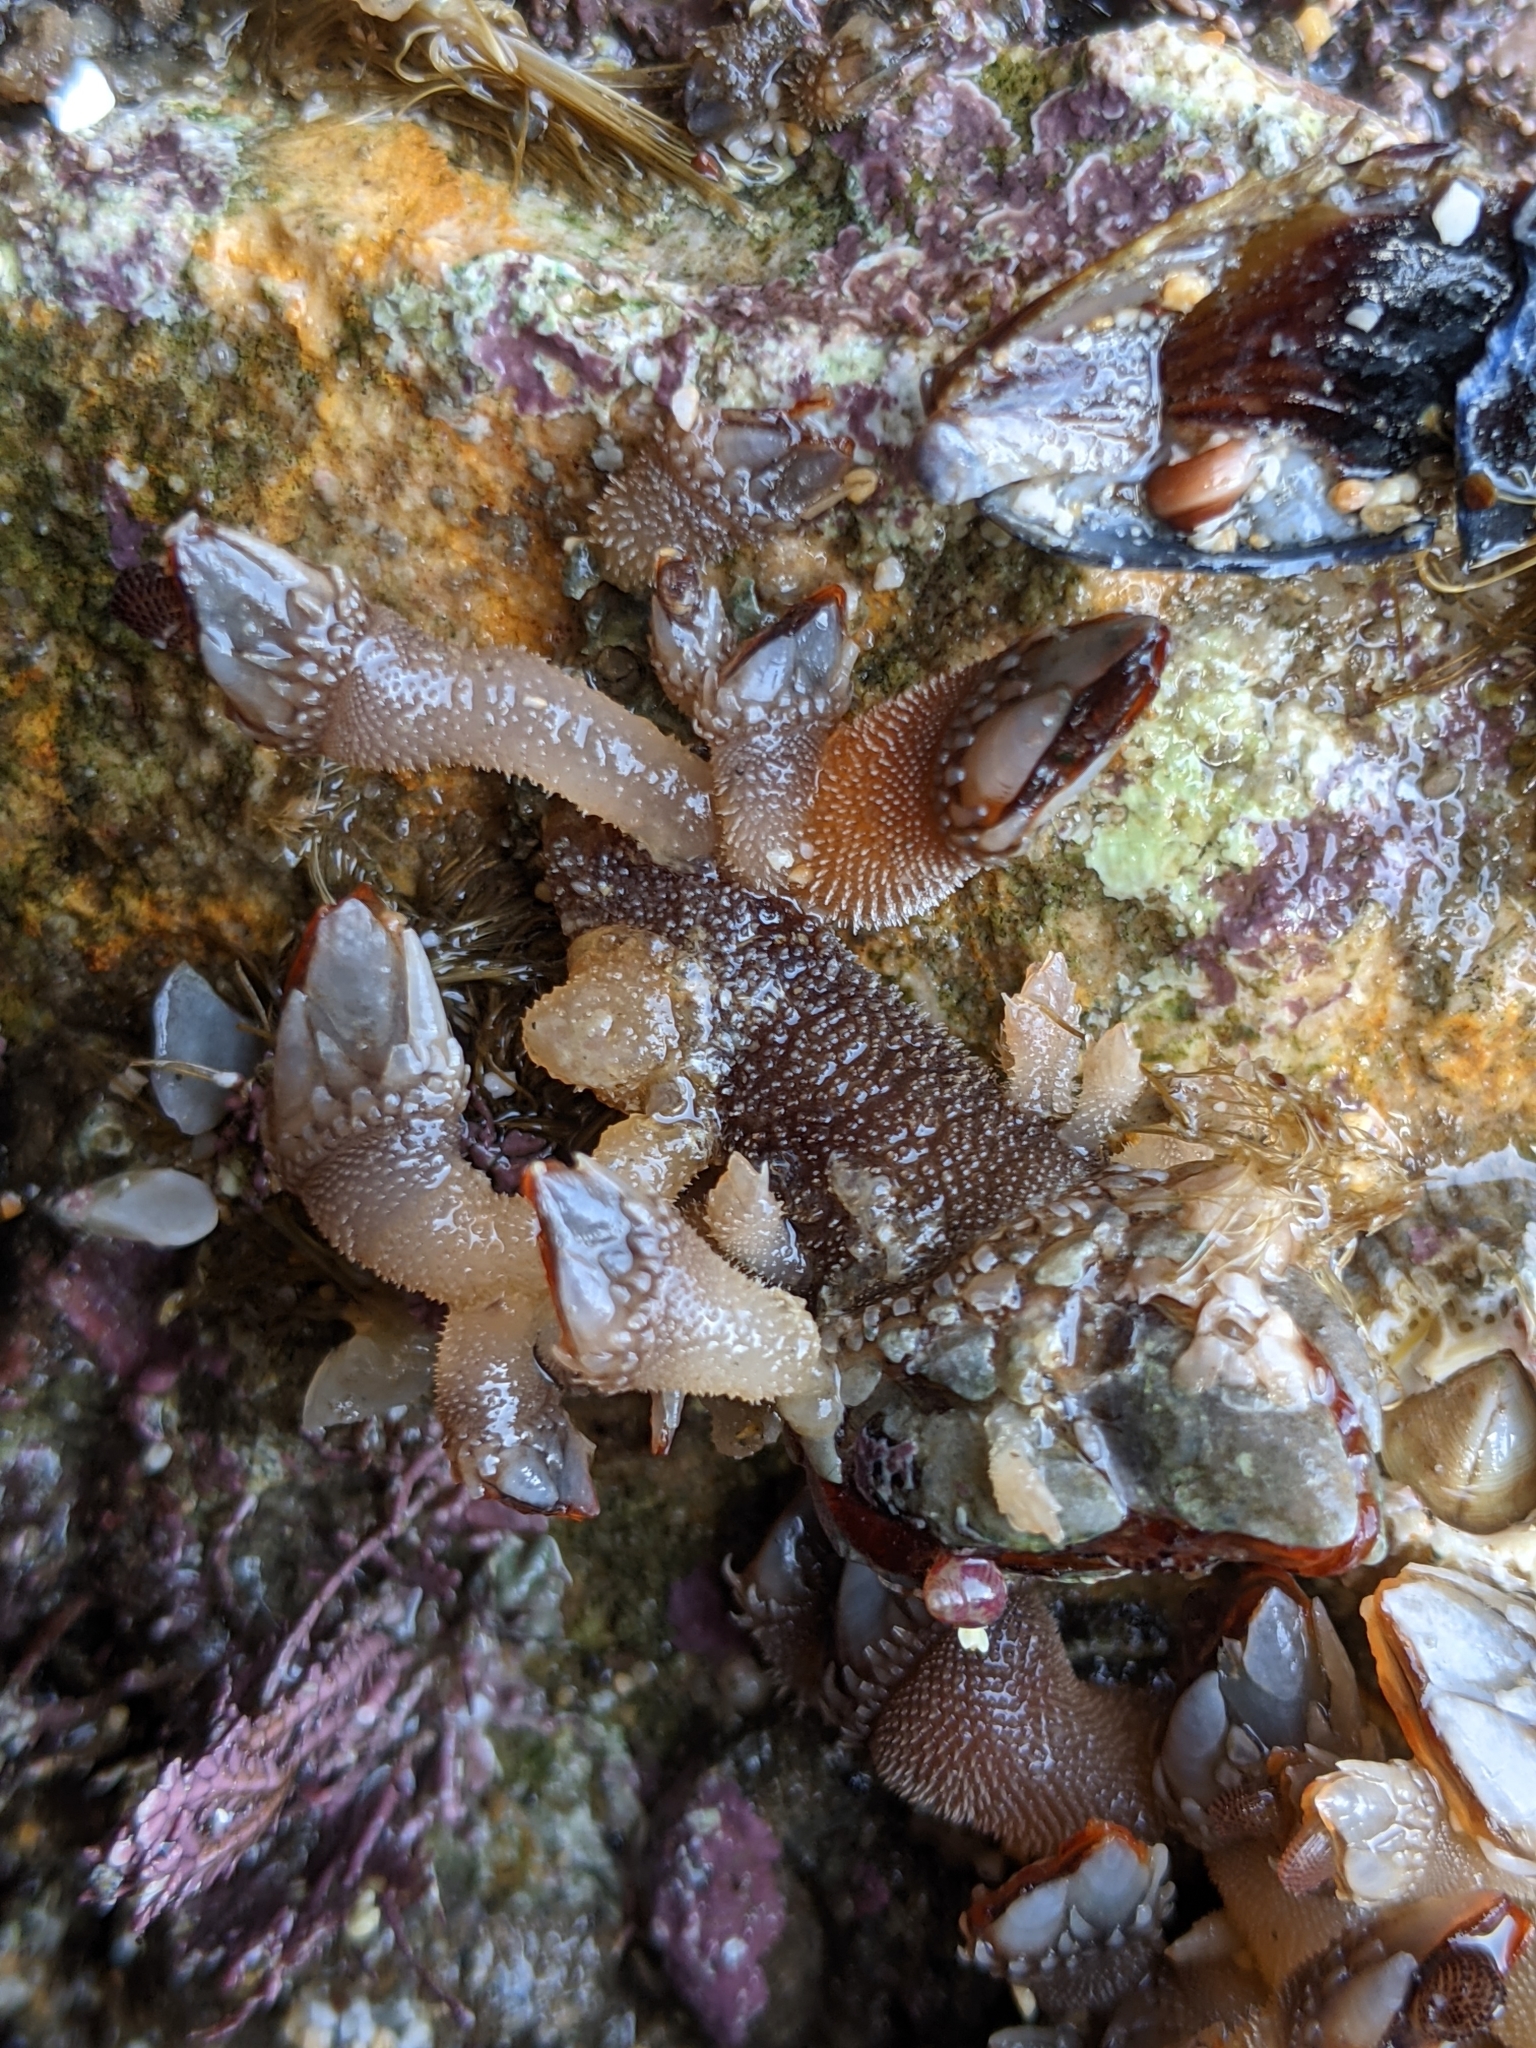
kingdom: Animalia
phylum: Arthropoda
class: Maxillopoda
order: Pedunculata
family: Pollicipedidae
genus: Pollicipes
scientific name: Pollicipes polymerus
